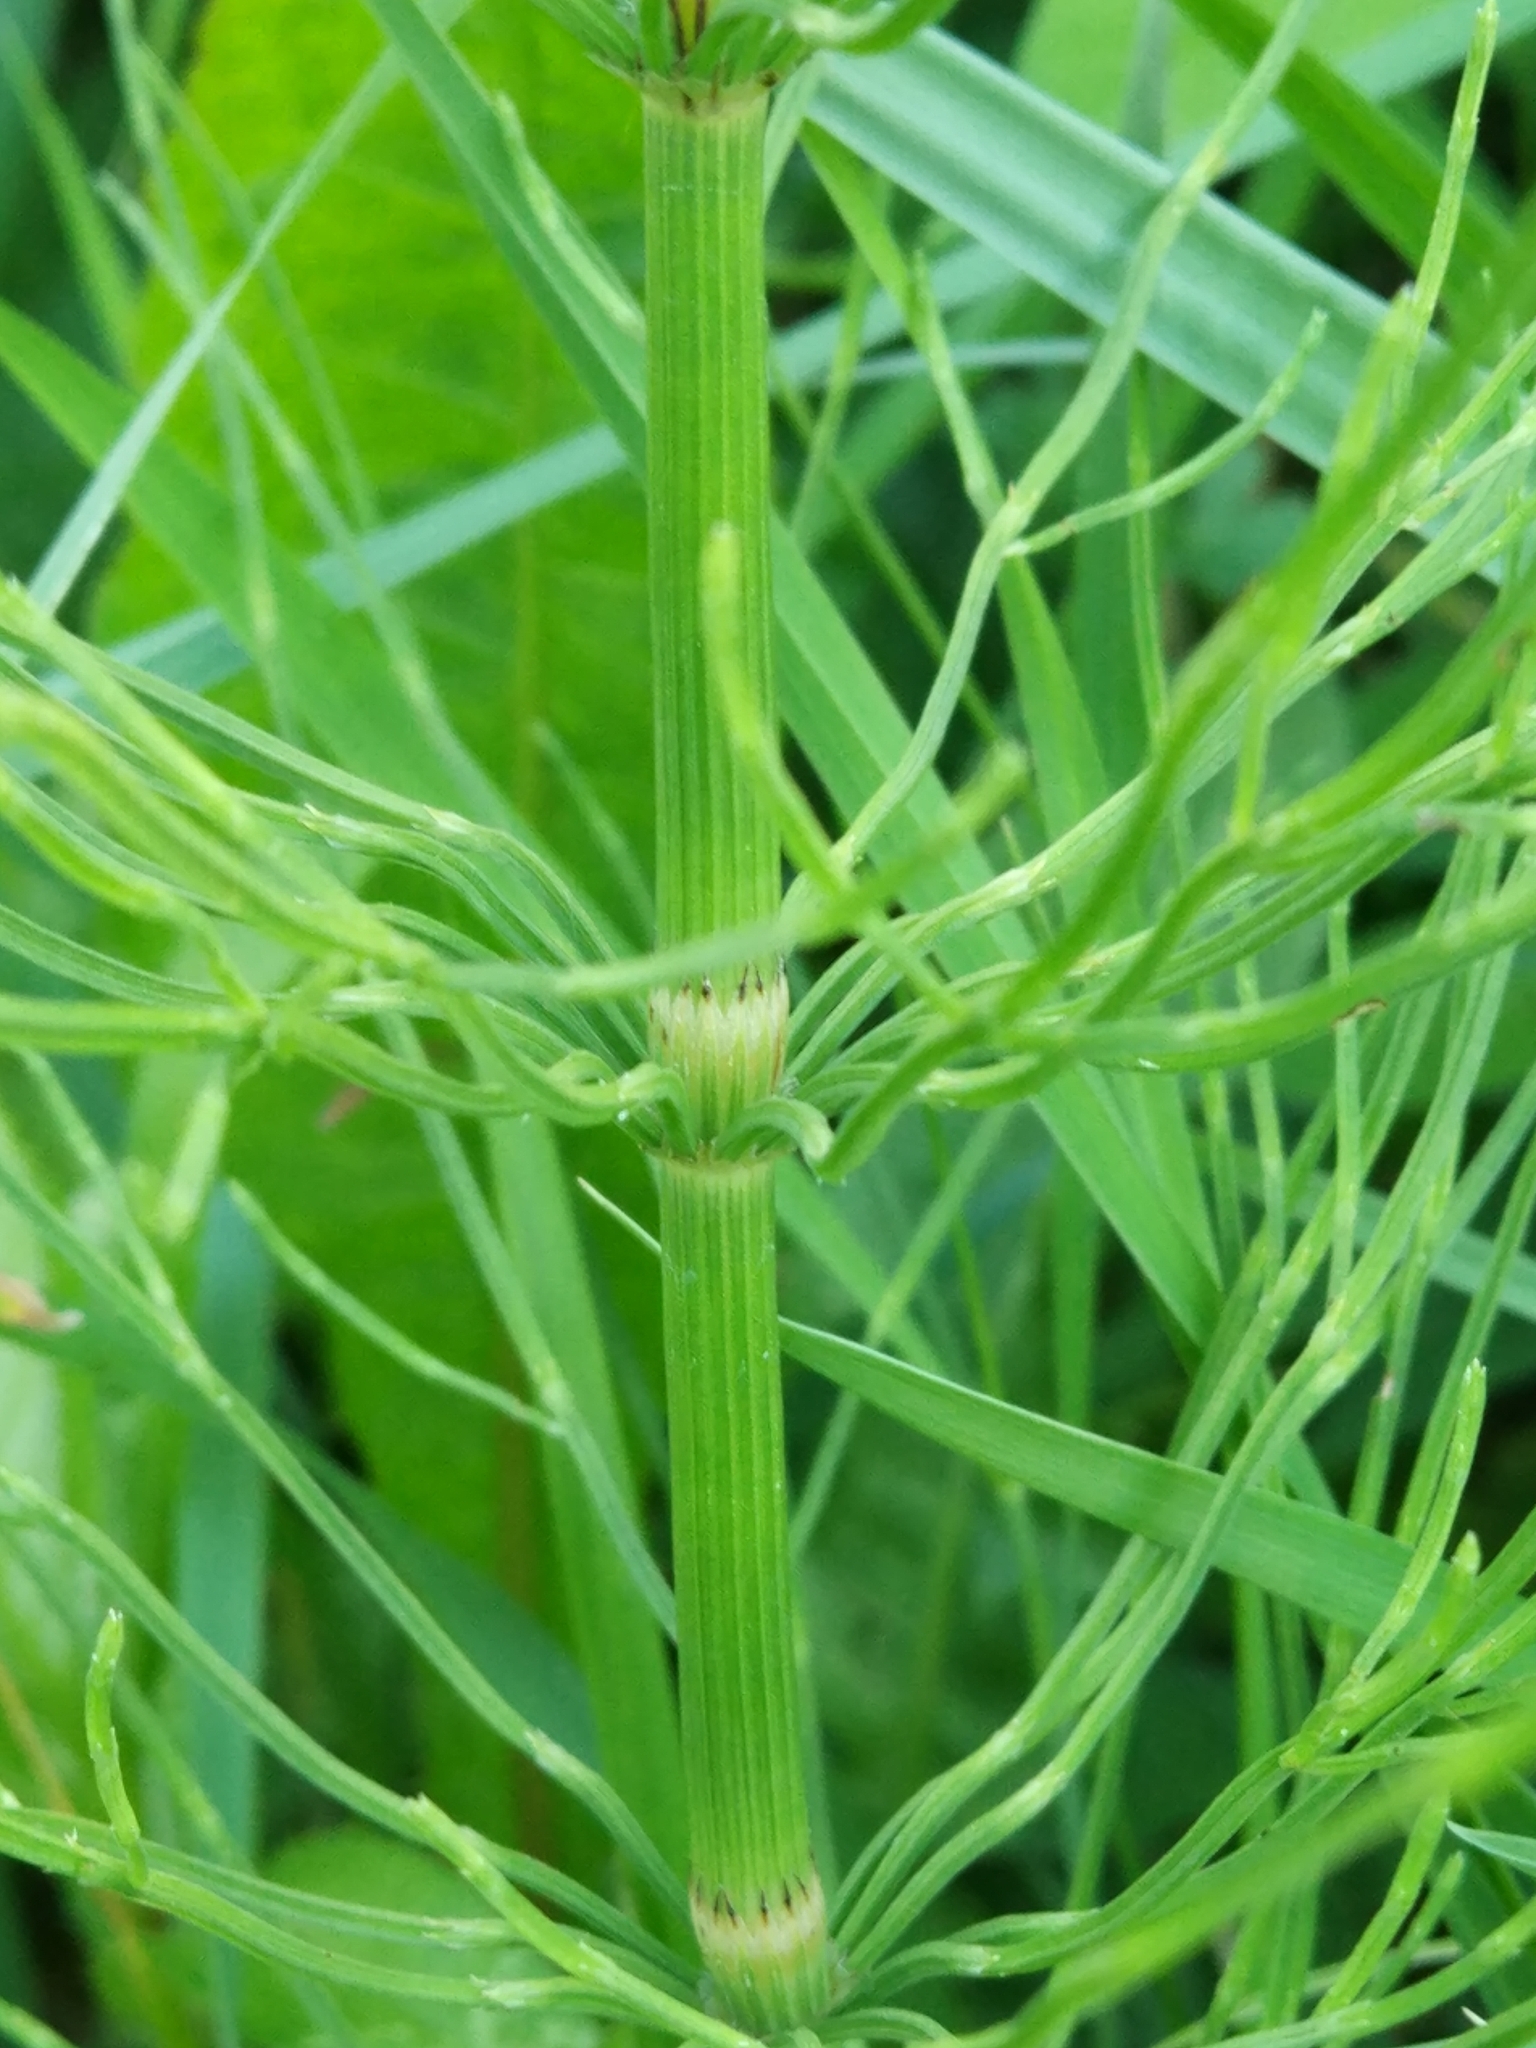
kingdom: Plantae
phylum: Tracheophyta
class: Polypodiopsida
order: Equisetales
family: Equisetaceae
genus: Equisetum
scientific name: Equisetum arvense
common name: Field horsetail
